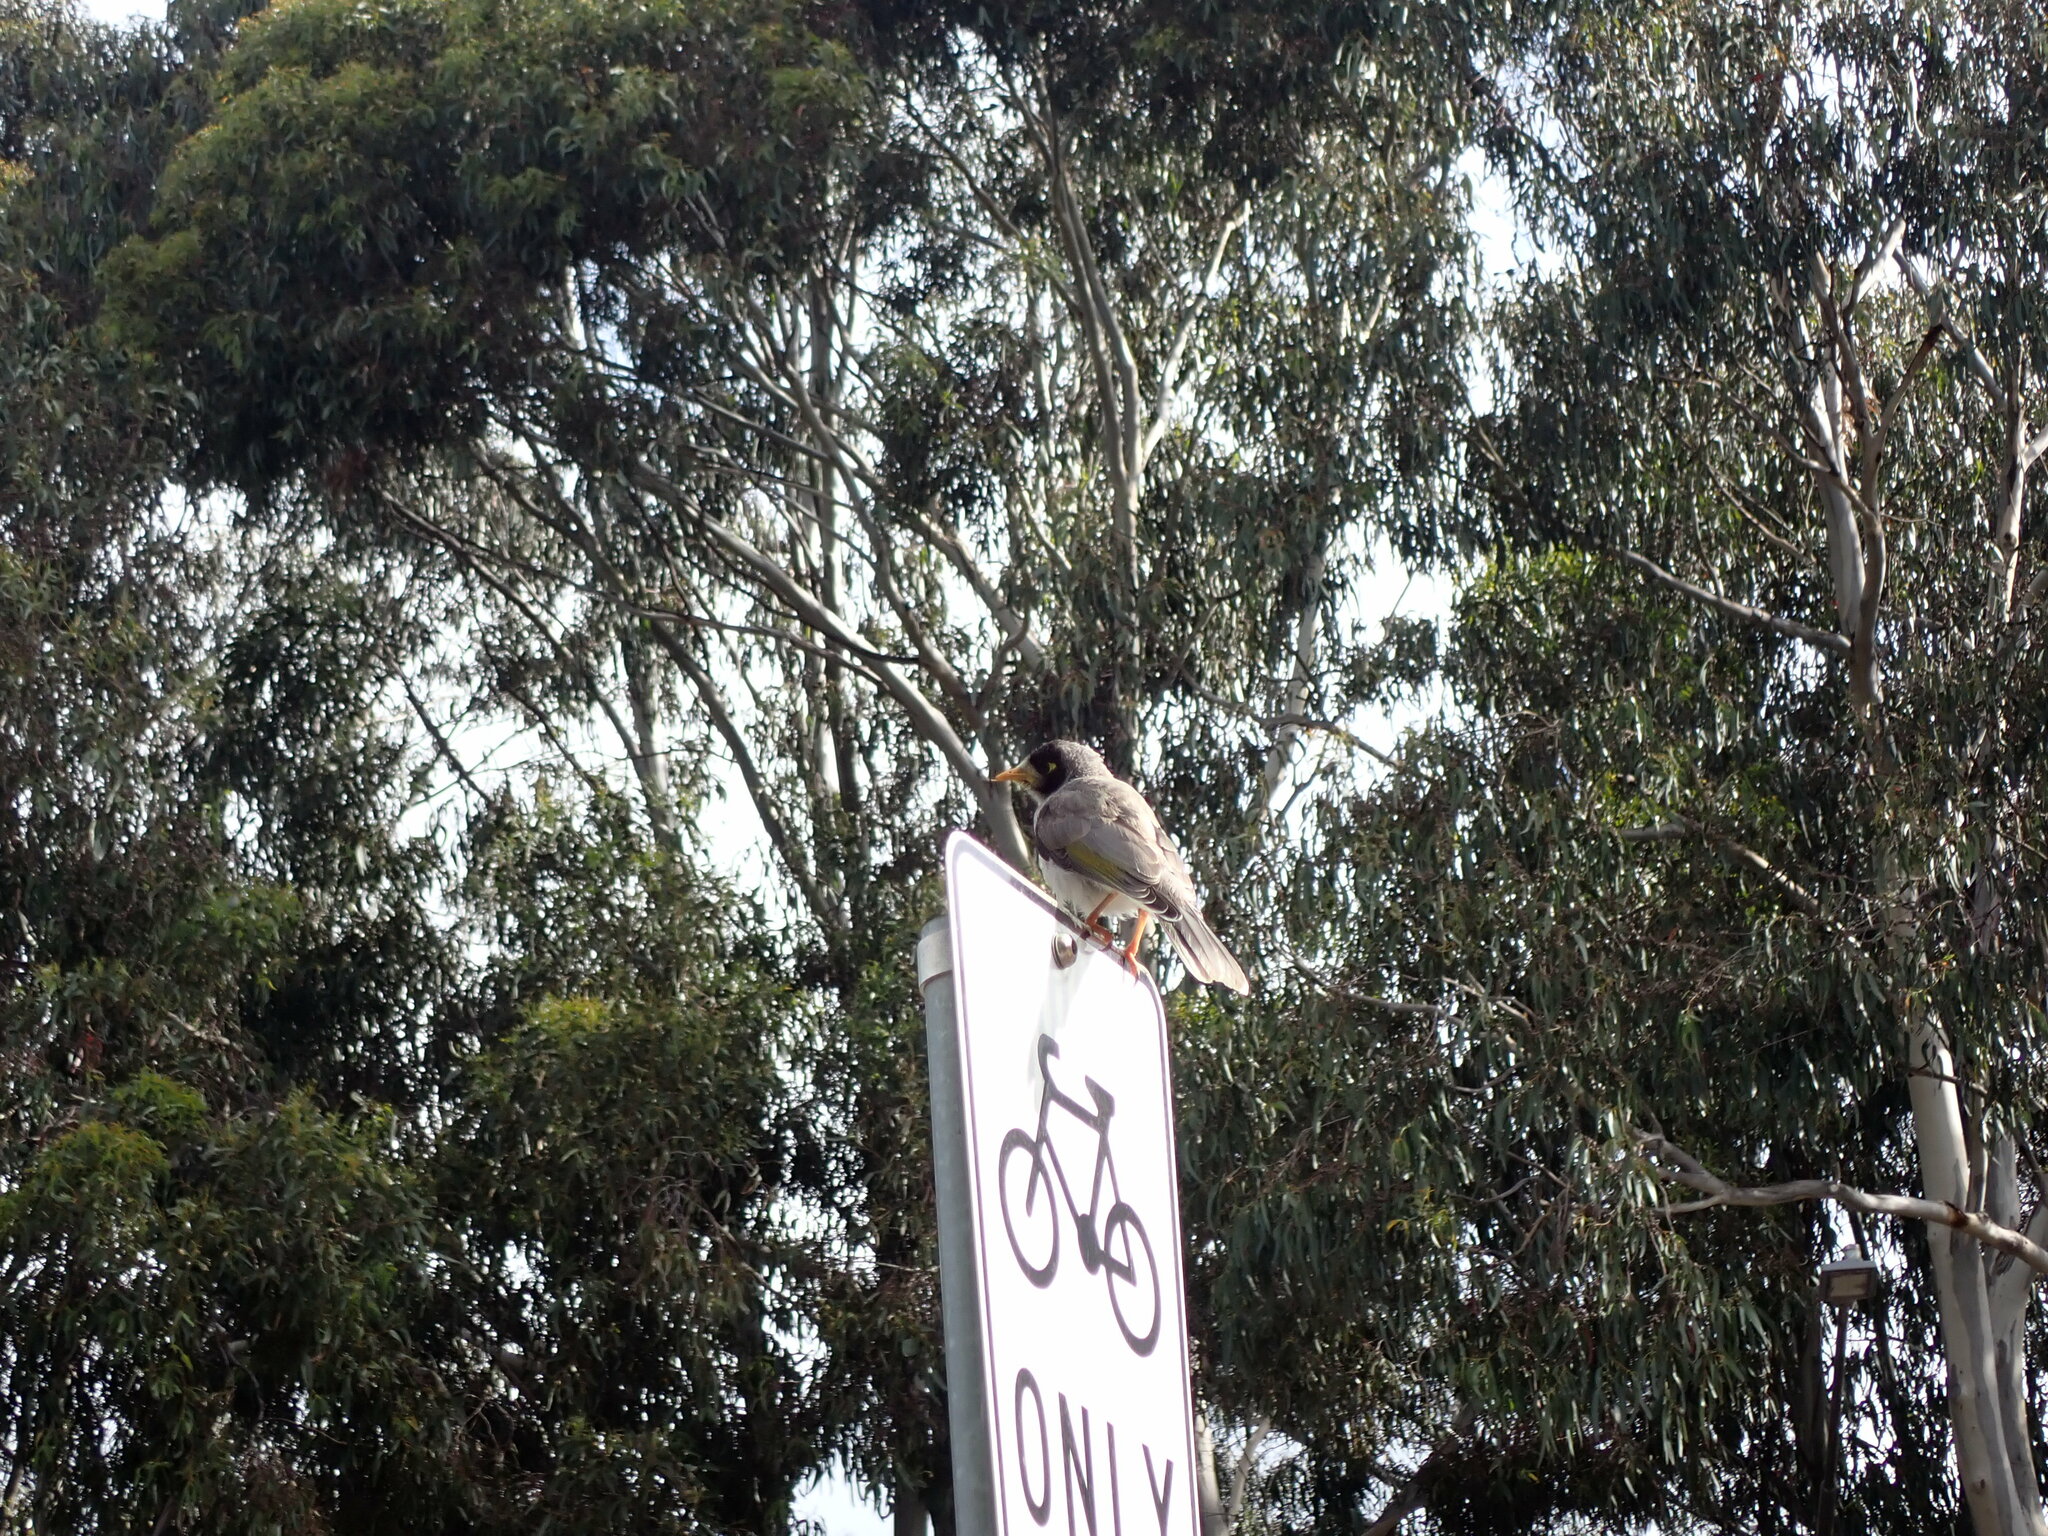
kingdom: Animalia
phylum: Chordata
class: Aves
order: Passeriformes
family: Meliphagidae
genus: Manorina
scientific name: Manorina melanocephala
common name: Noisy miner
